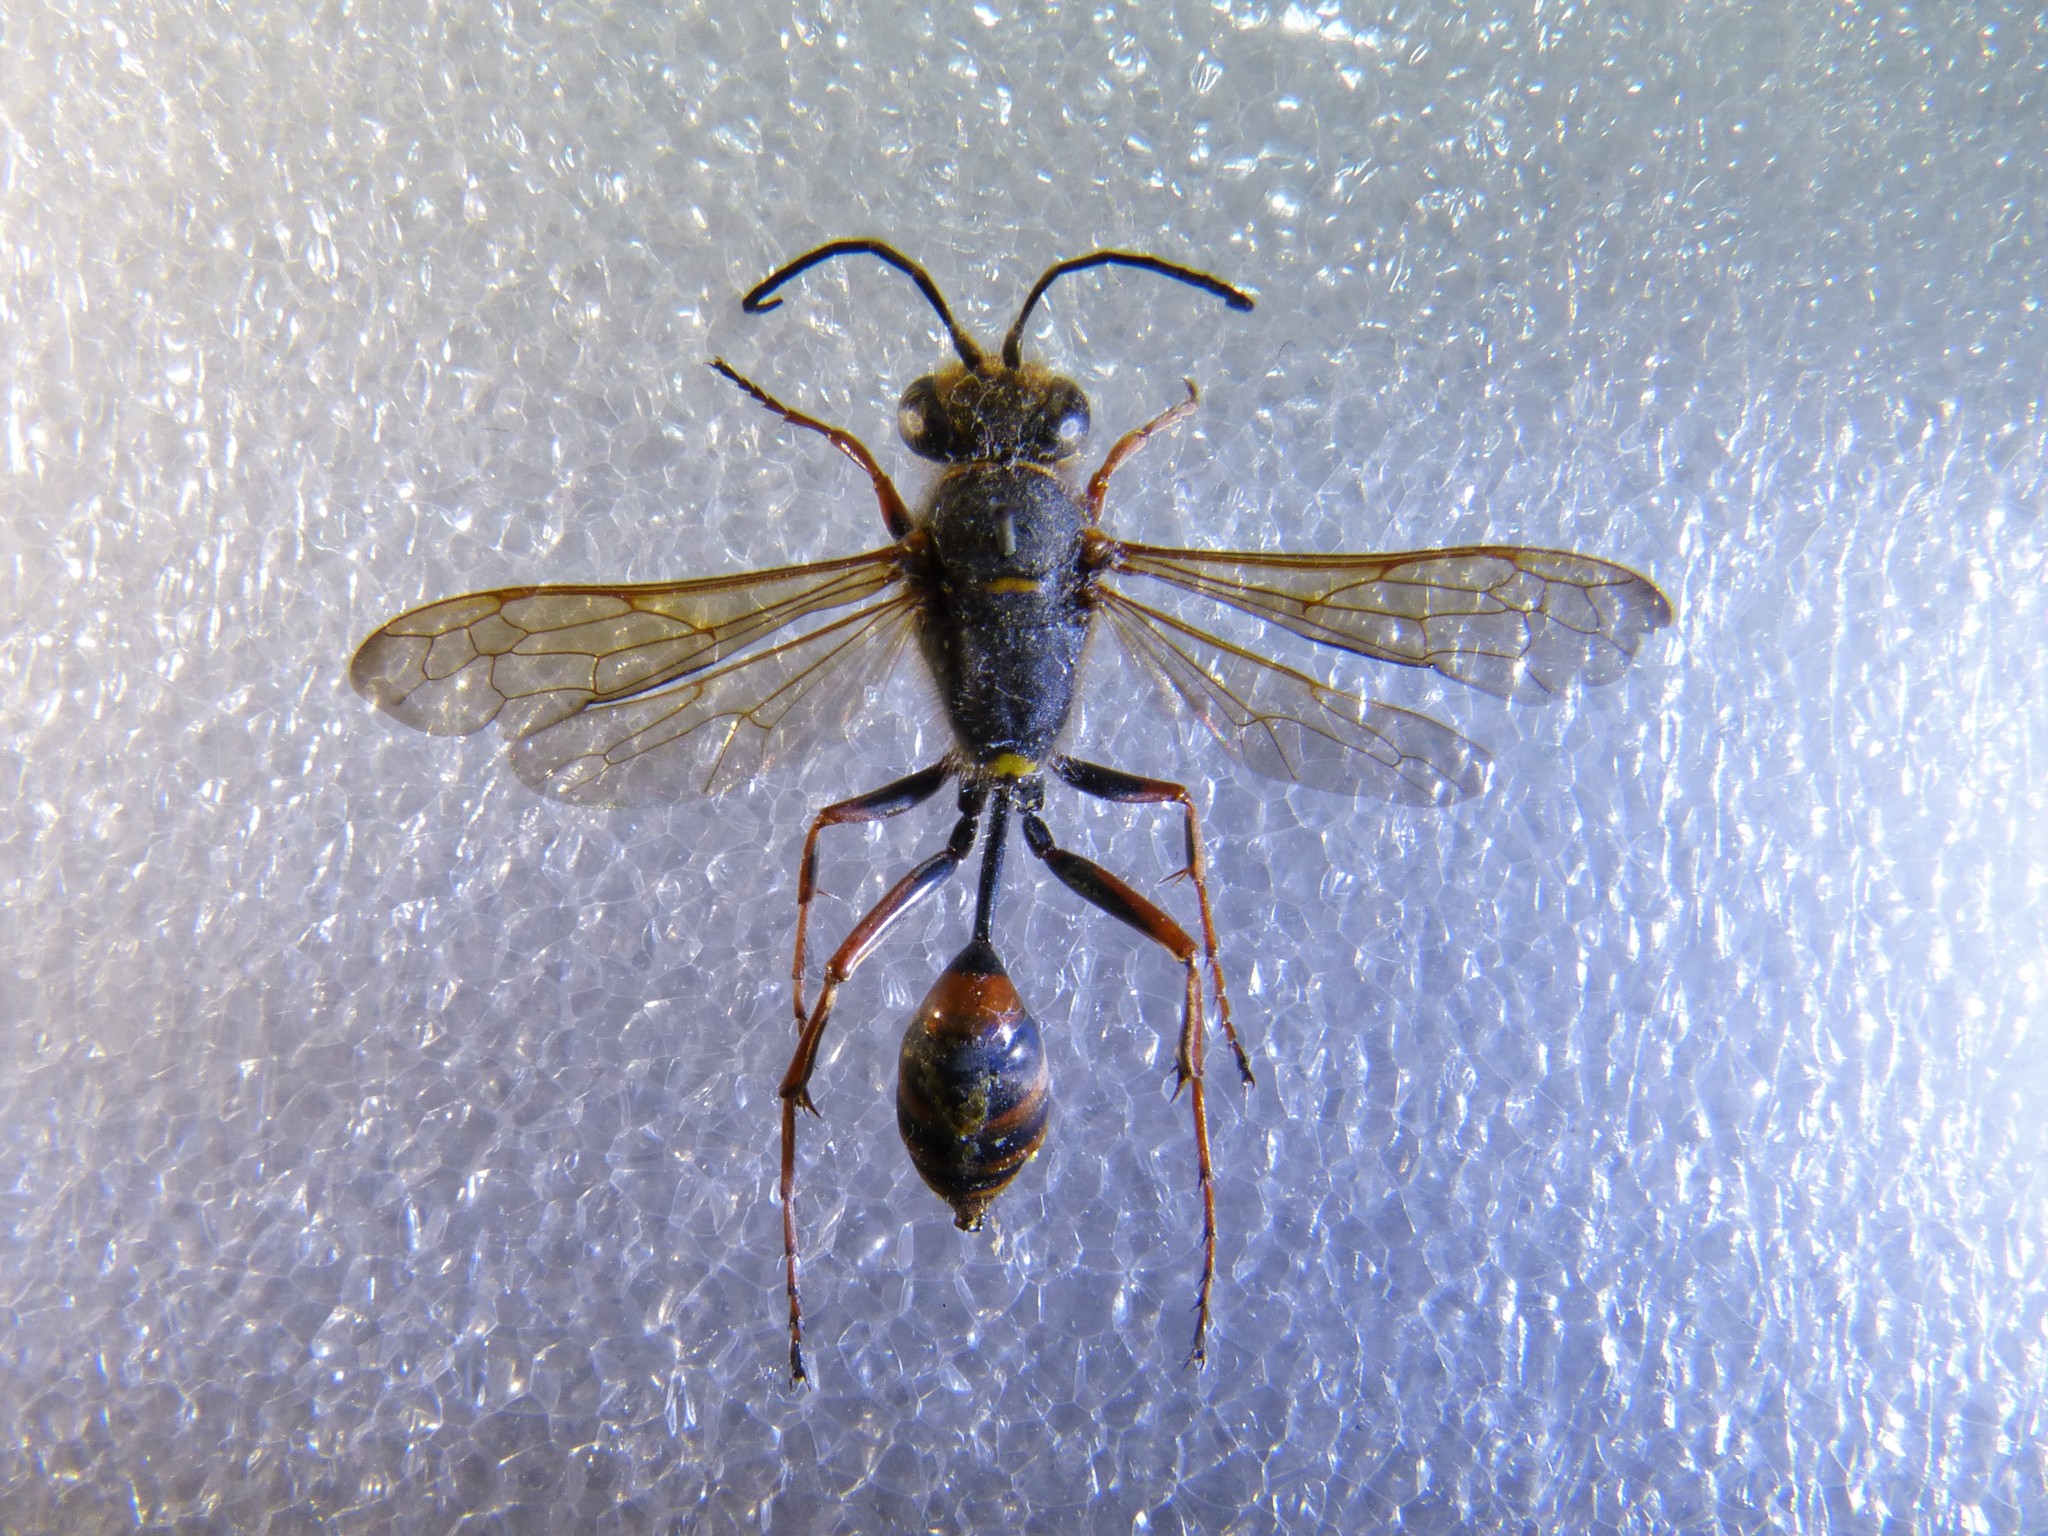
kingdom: Animalia
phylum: Arthropoda
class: Insecta
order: Hymenoptera
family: Sphecidae
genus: Sceliphron
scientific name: Sceliphron curvatum
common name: Pèlopèe
